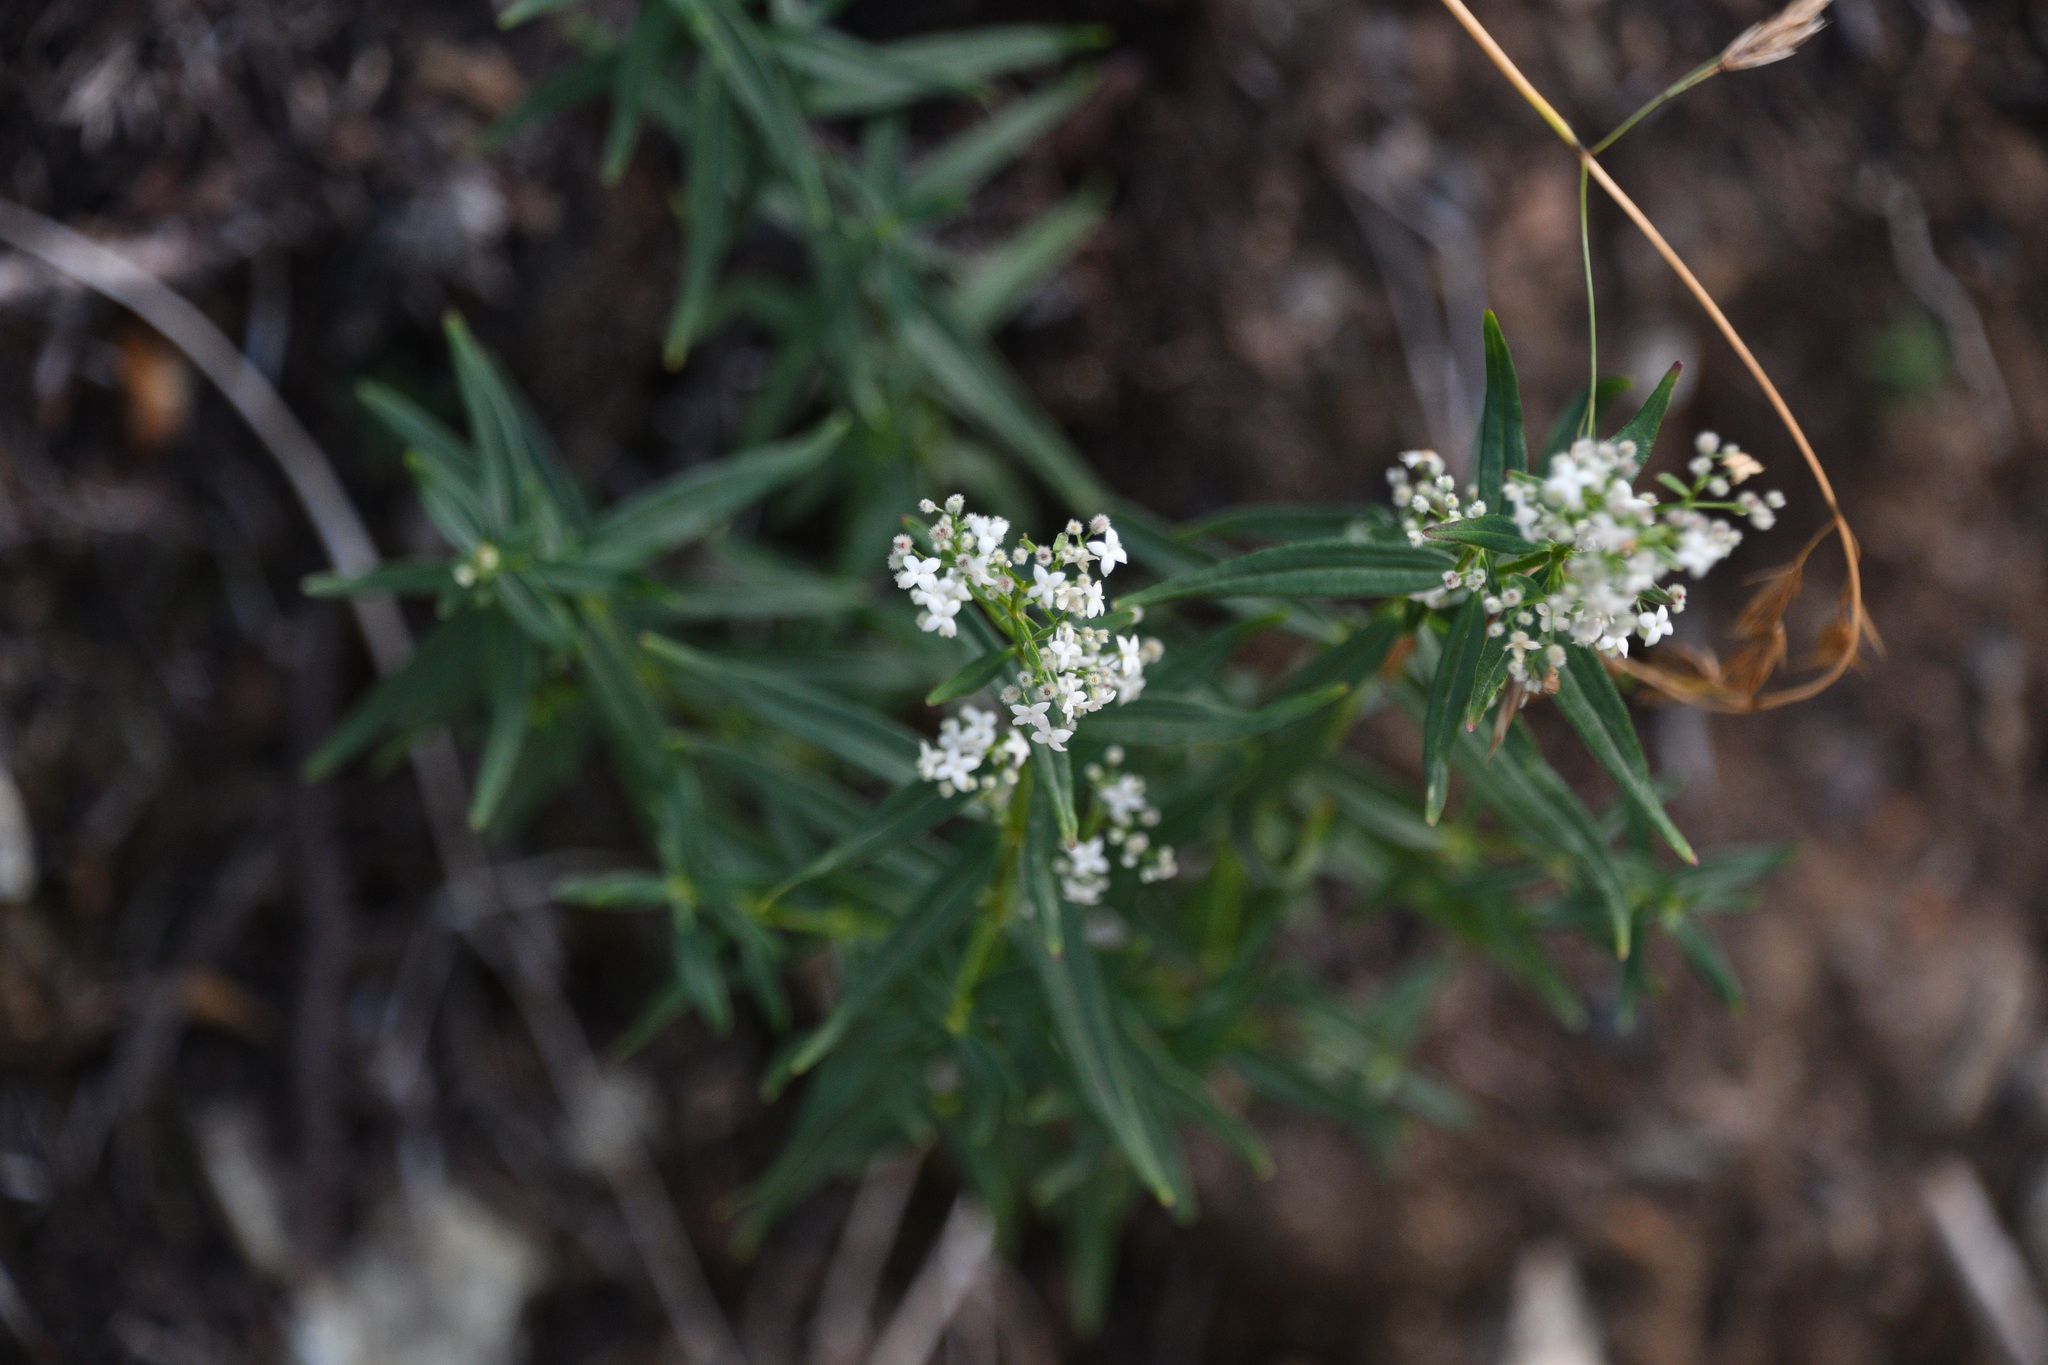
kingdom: Plantae
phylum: Tracheophyta
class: Magnoliopsida
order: Gentianales
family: Rubiaceae
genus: Galium
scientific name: Galium boreale
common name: Northern bedstraw
